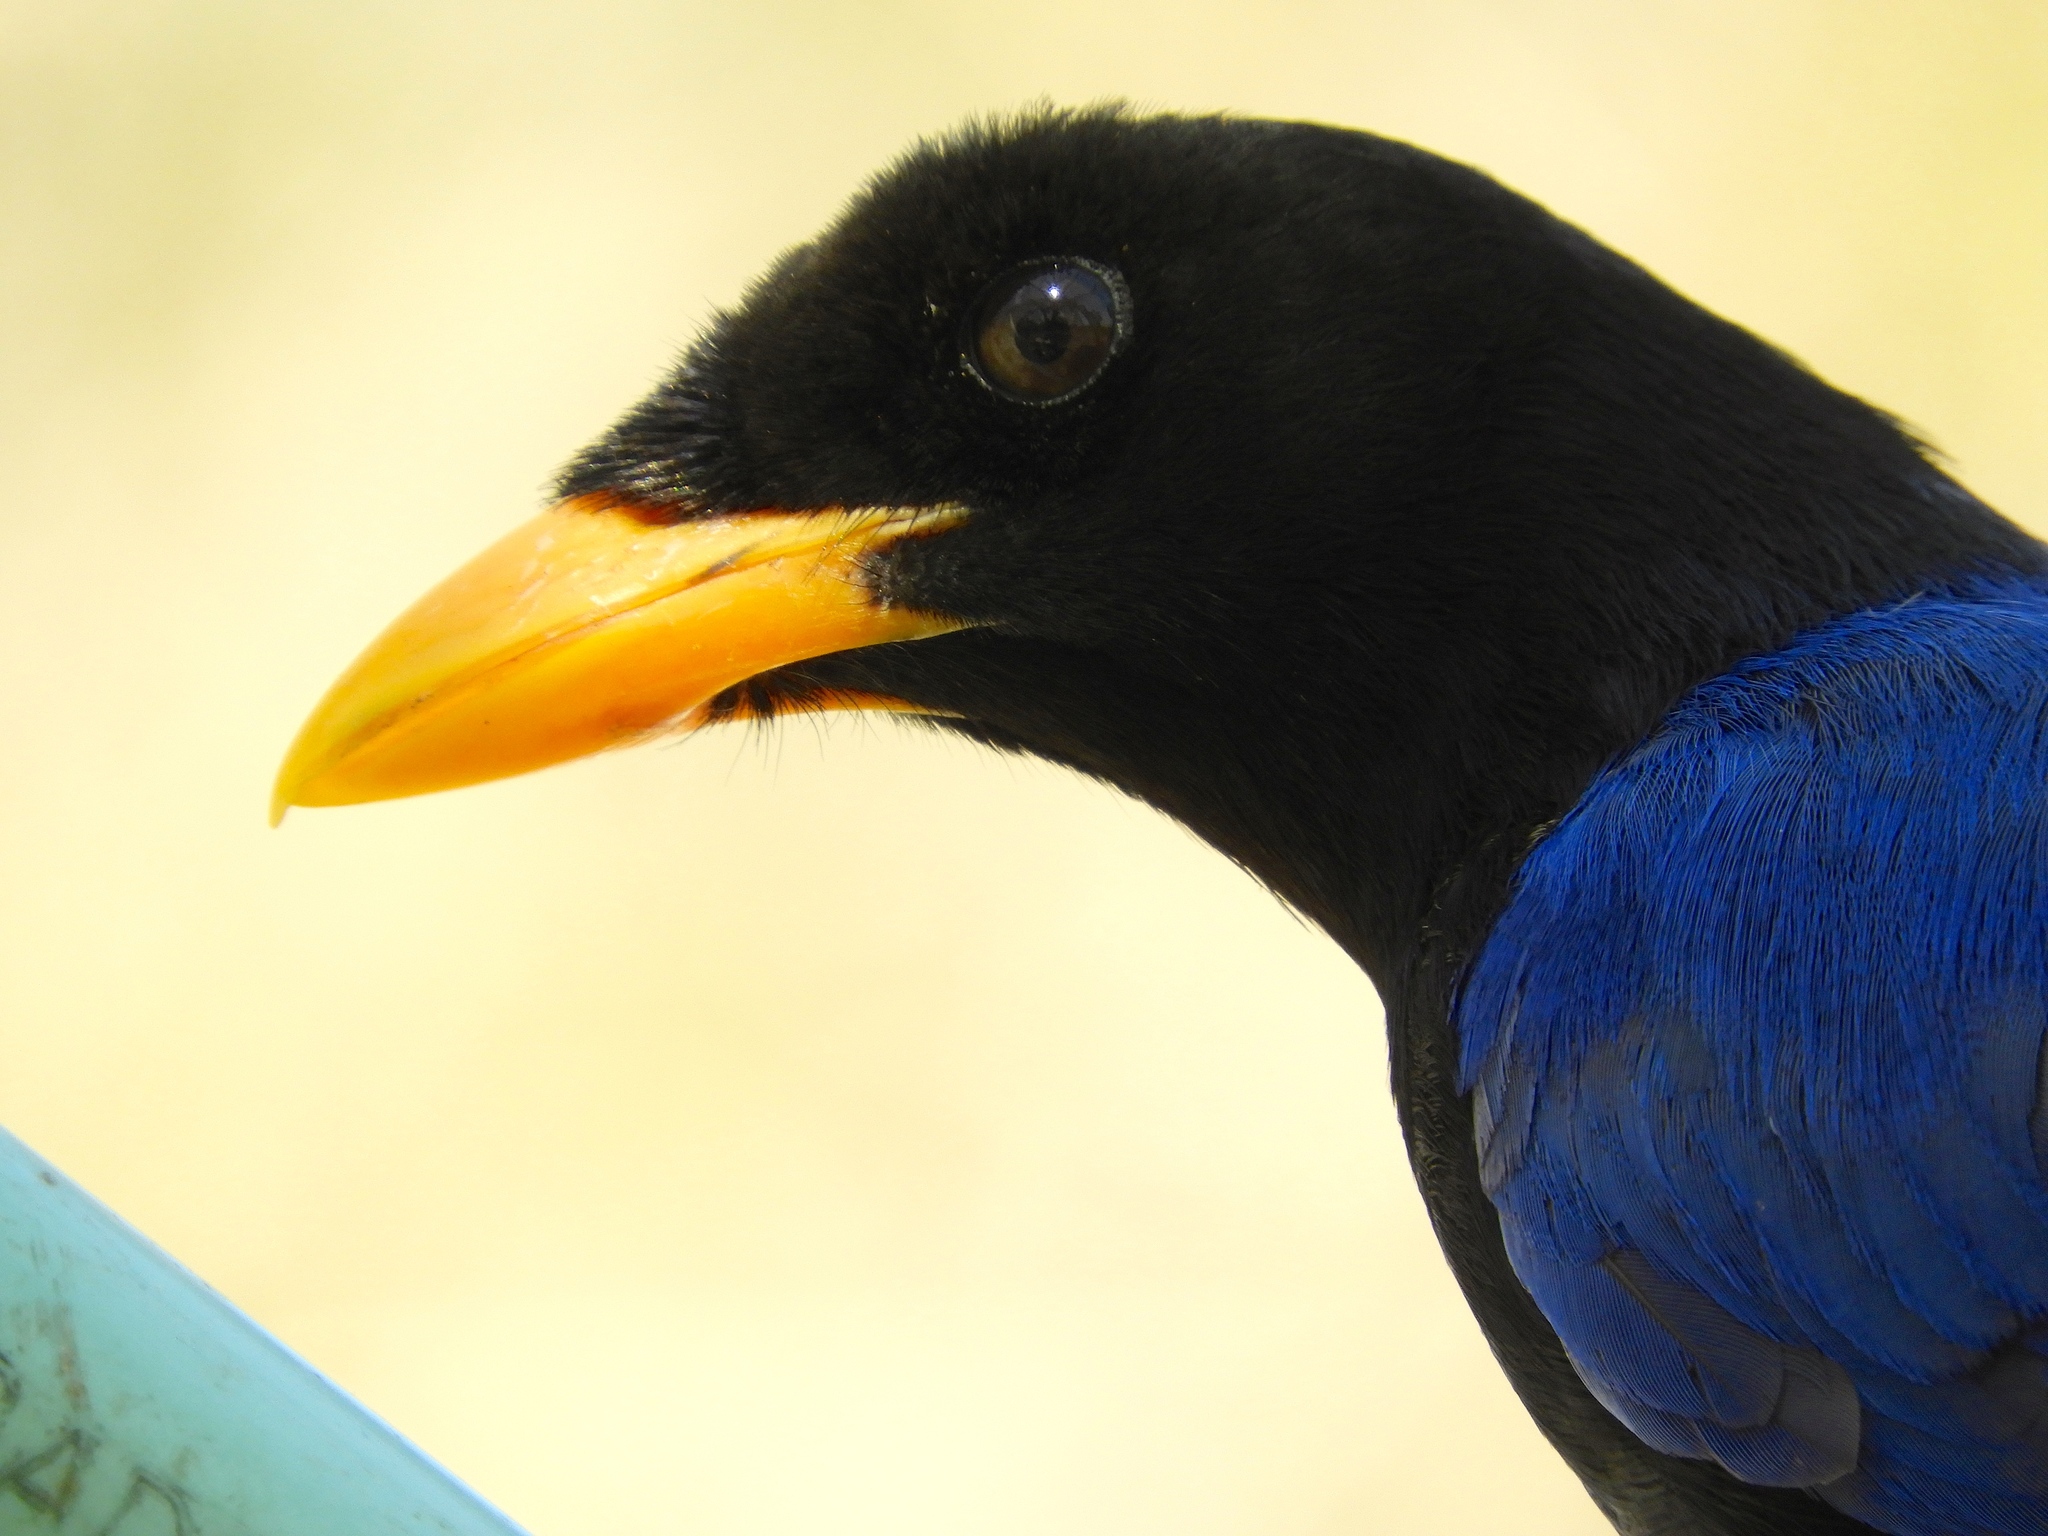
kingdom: Animalia
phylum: Chordata
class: Aves
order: Passeriformes
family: Corvidae
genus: Cyanocorax
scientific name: Cyanocorax beecheii
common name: Purplish-backed jay
